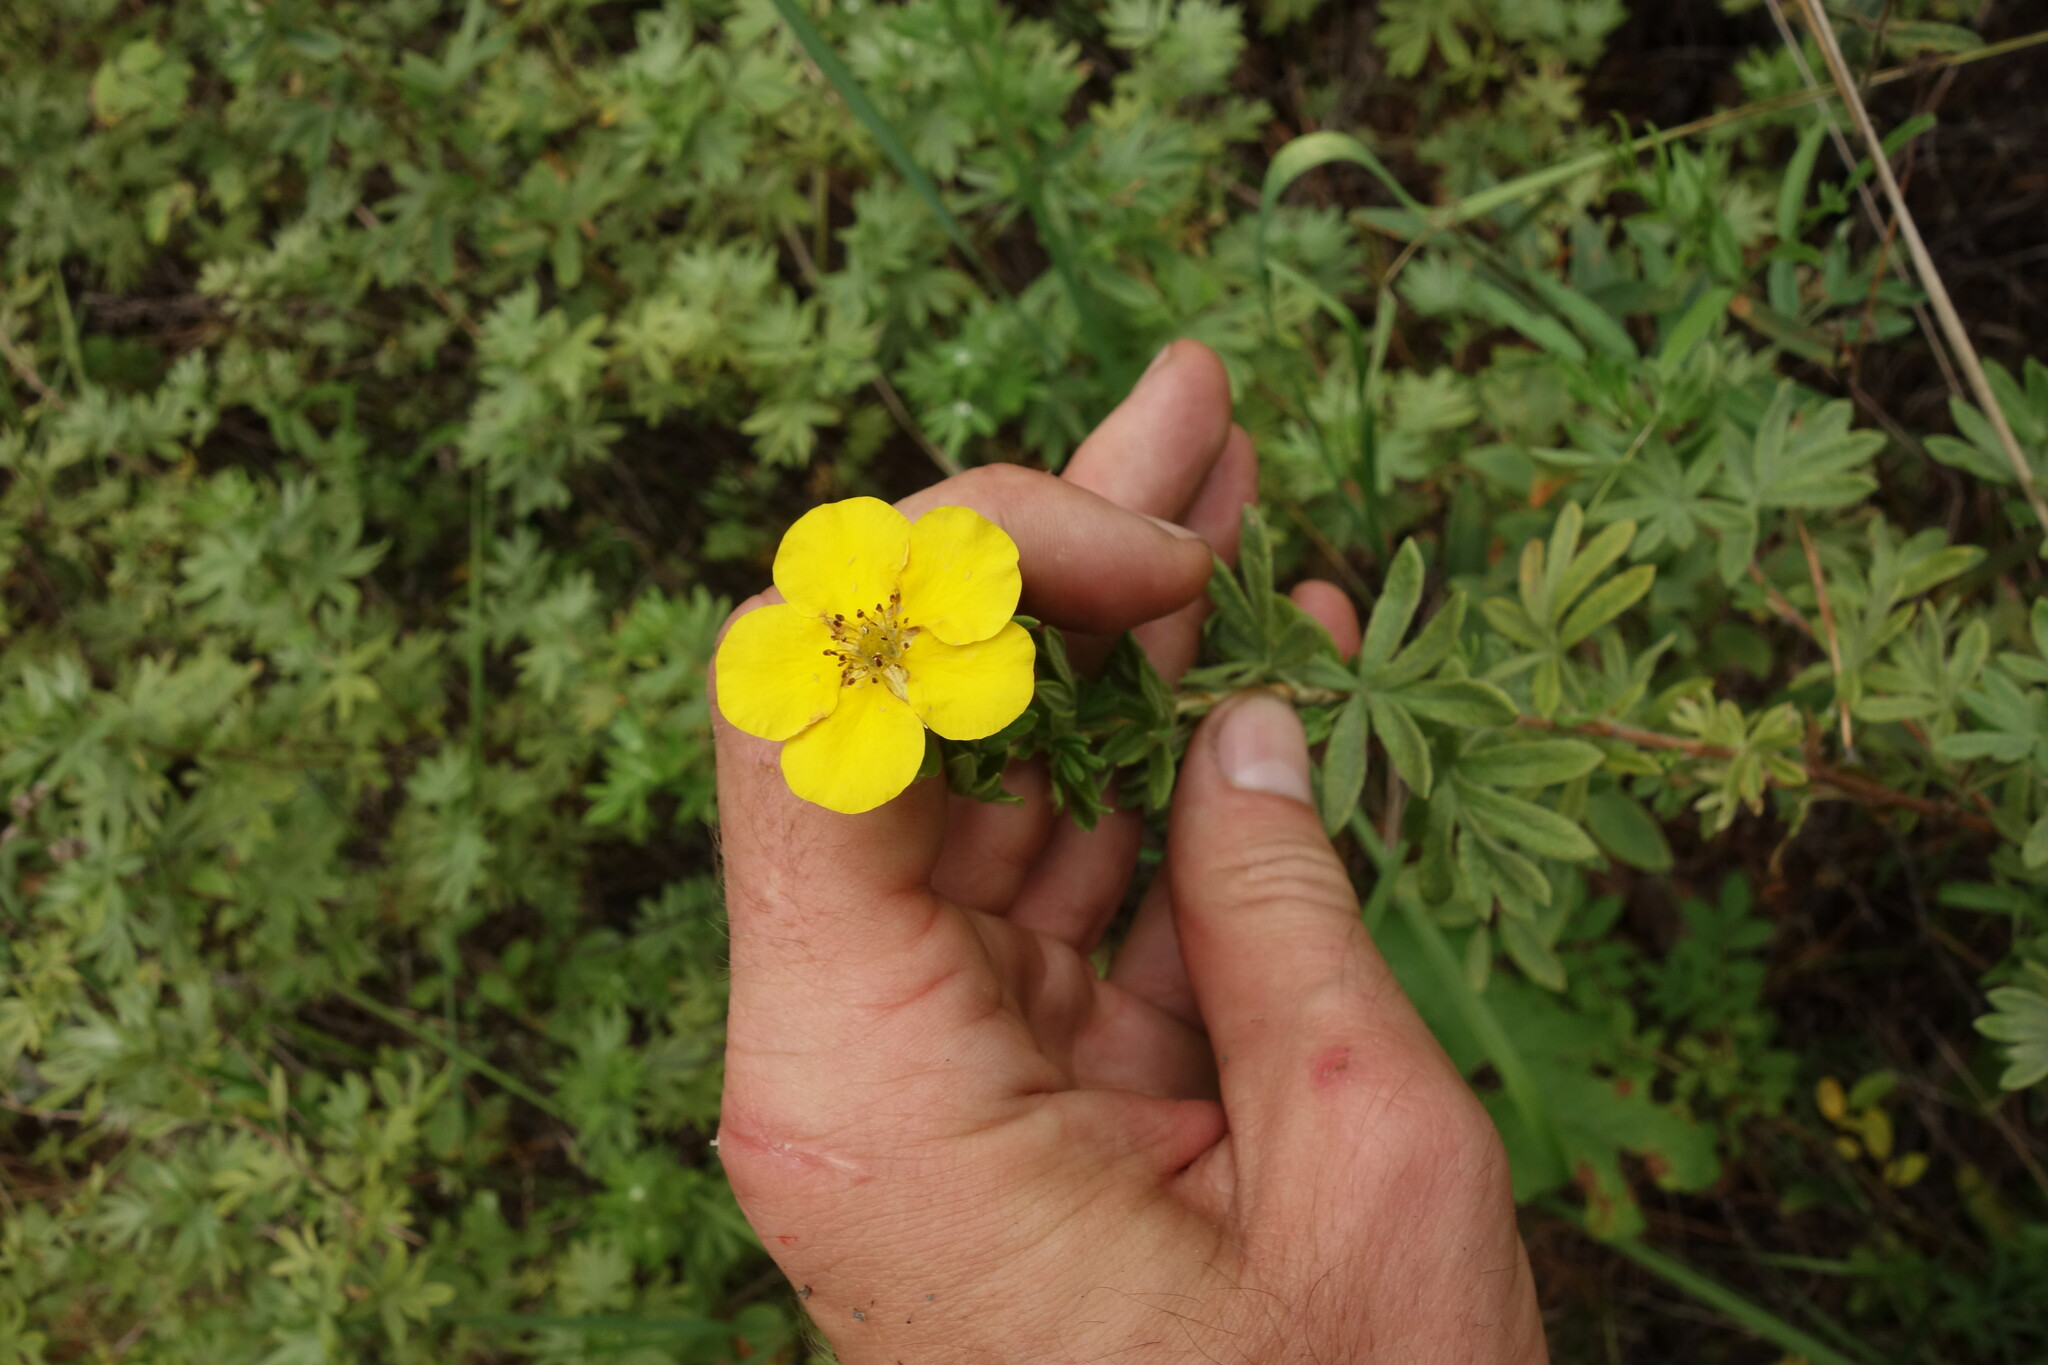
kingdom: Plantae
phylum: Tracheophyta
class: Magnoliopsida
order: Rosales
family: Rosaceae
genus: Dasiphora
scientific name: Dasiphora fruticosa
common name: Shrubby cinquefoil
